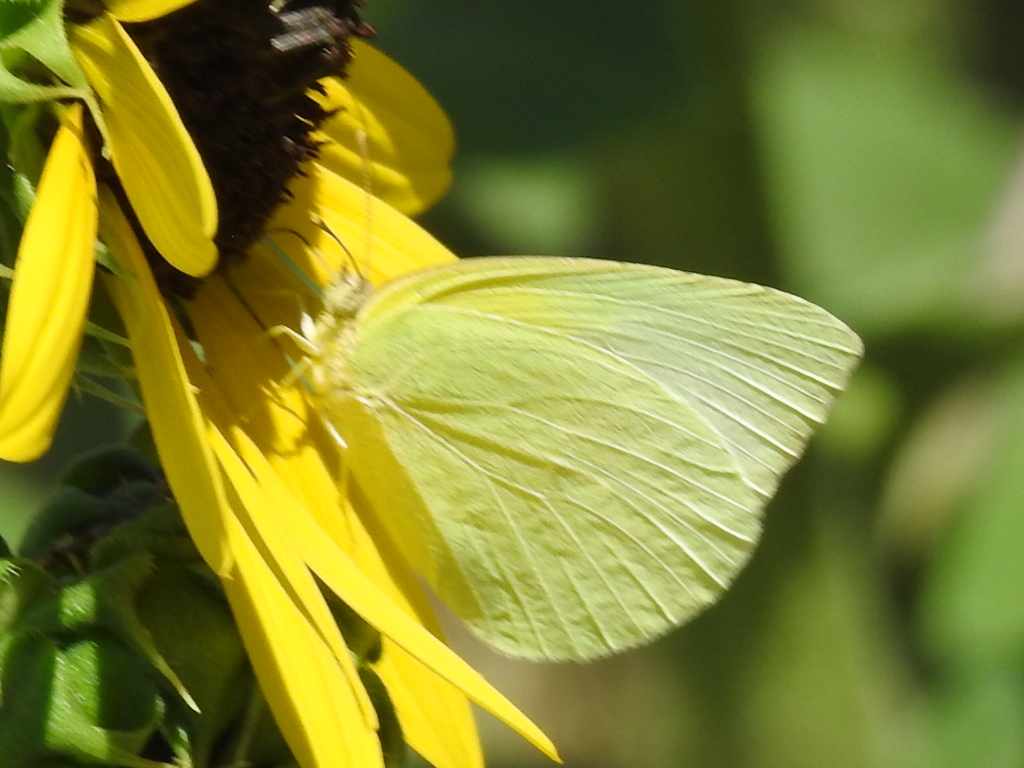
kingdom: Animalia
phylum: Arthropoda
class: Insecta
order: Lepidoptera
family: Pieridae
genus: Kricogonia
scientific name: Kricogonia lyside
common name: Guayacan sulphur,
